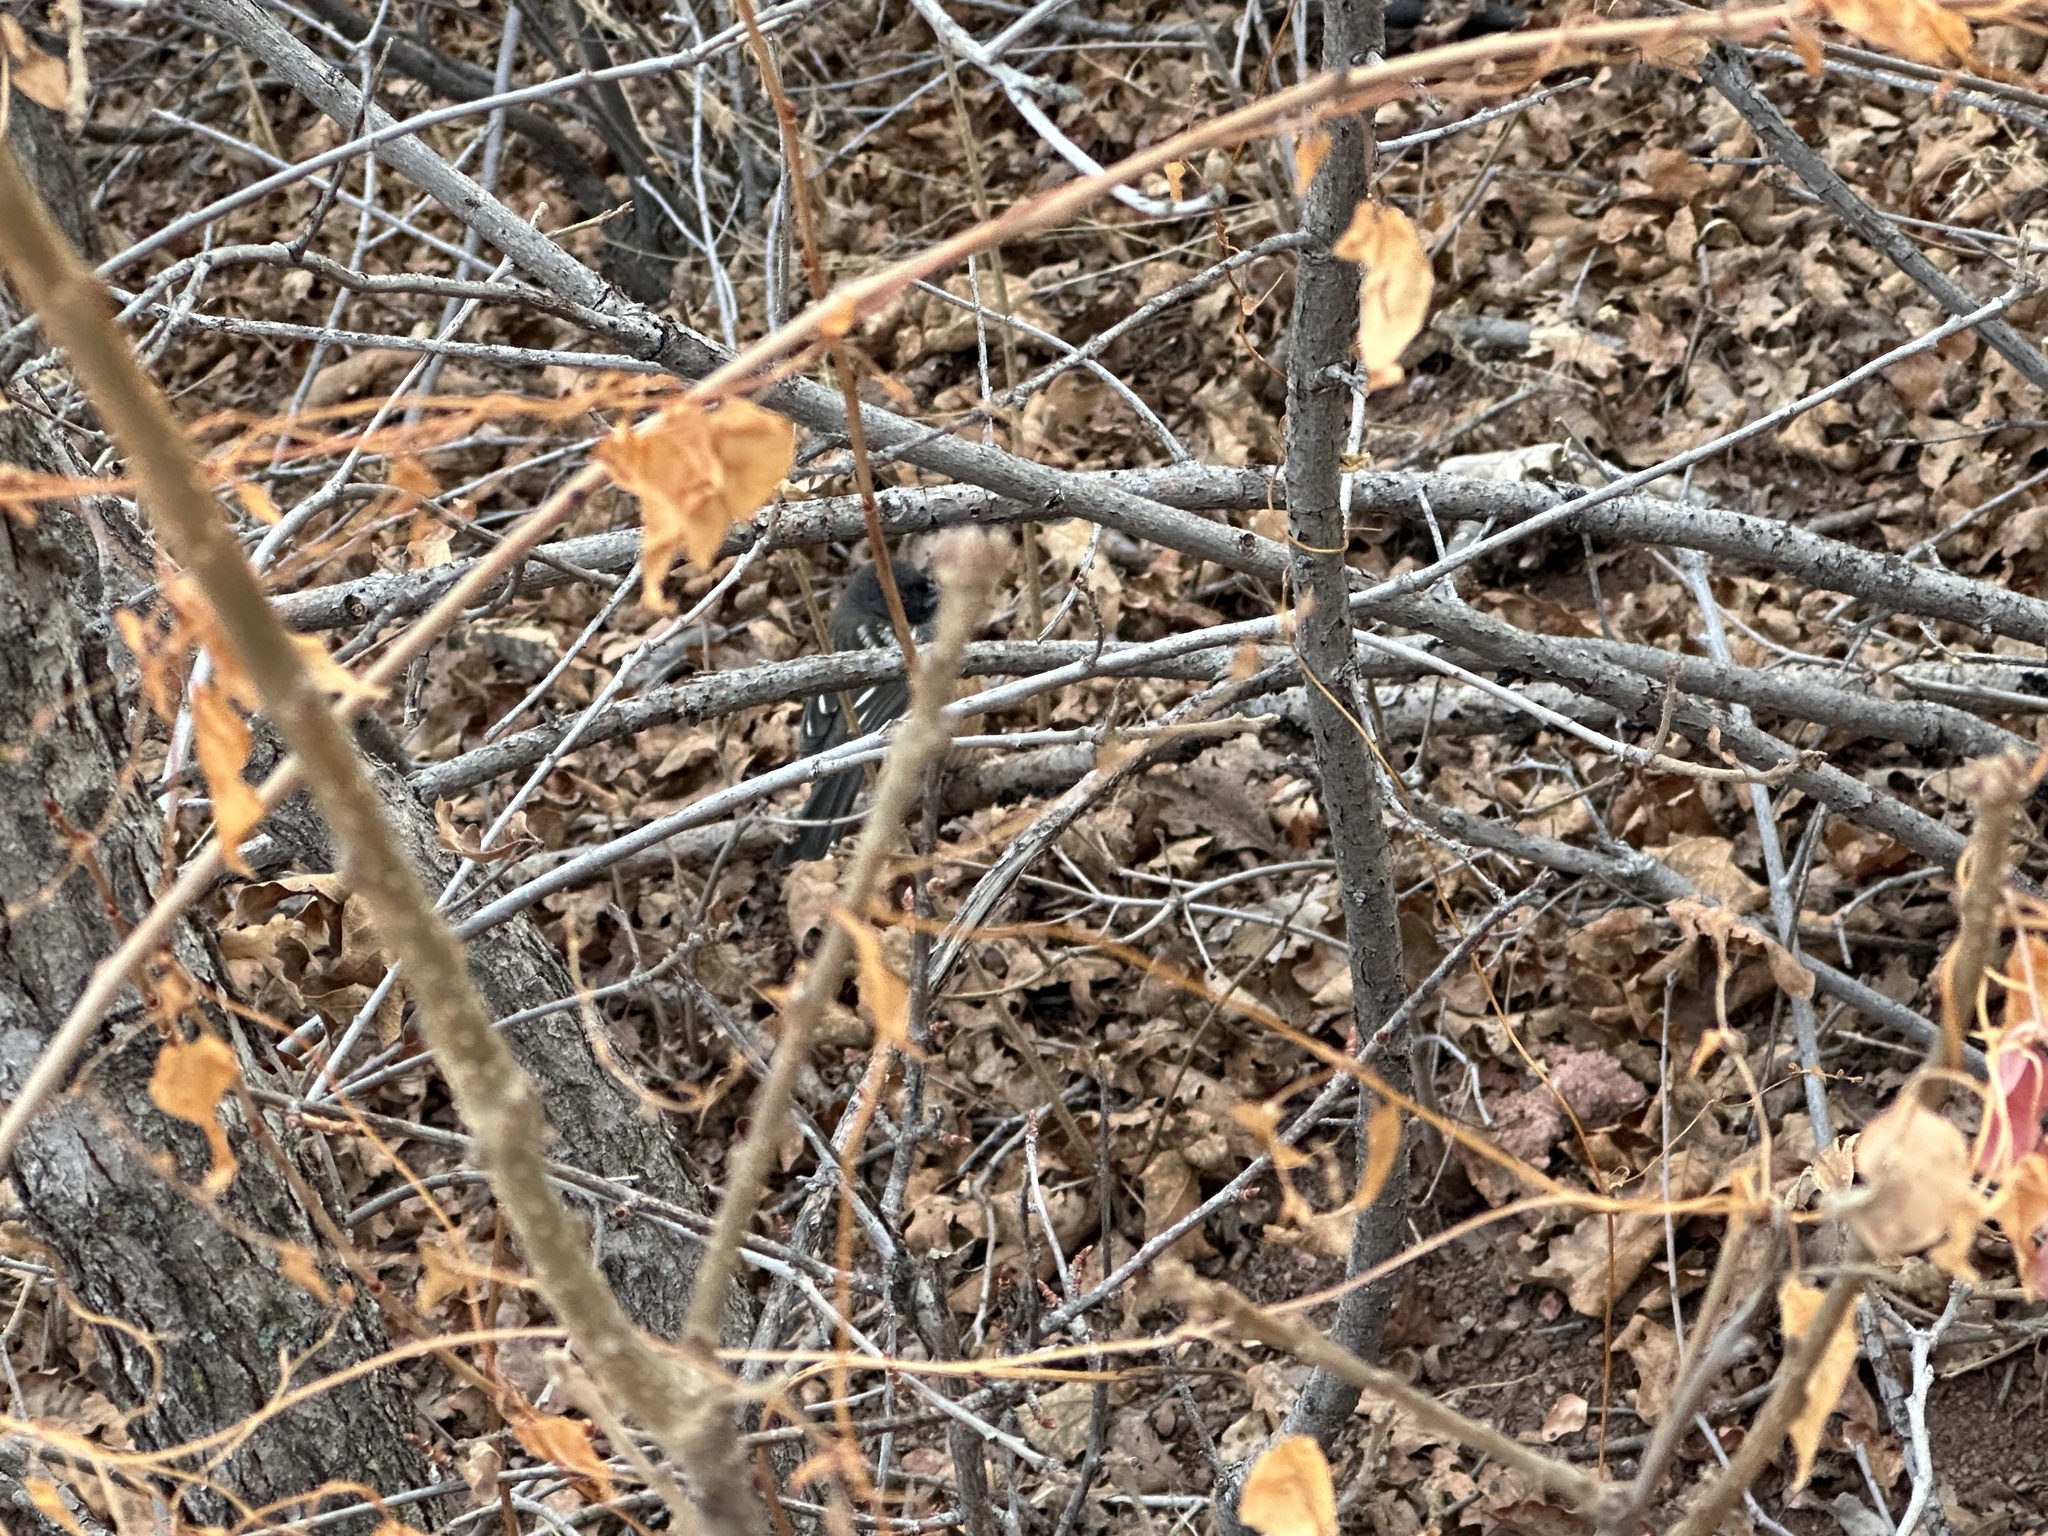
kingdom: Animalia
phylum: Chordata
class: Aves
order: Passeriformes
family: Passerellidae
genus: Pipilo
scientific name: Pipilo maculatus
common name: Spotted towhee
